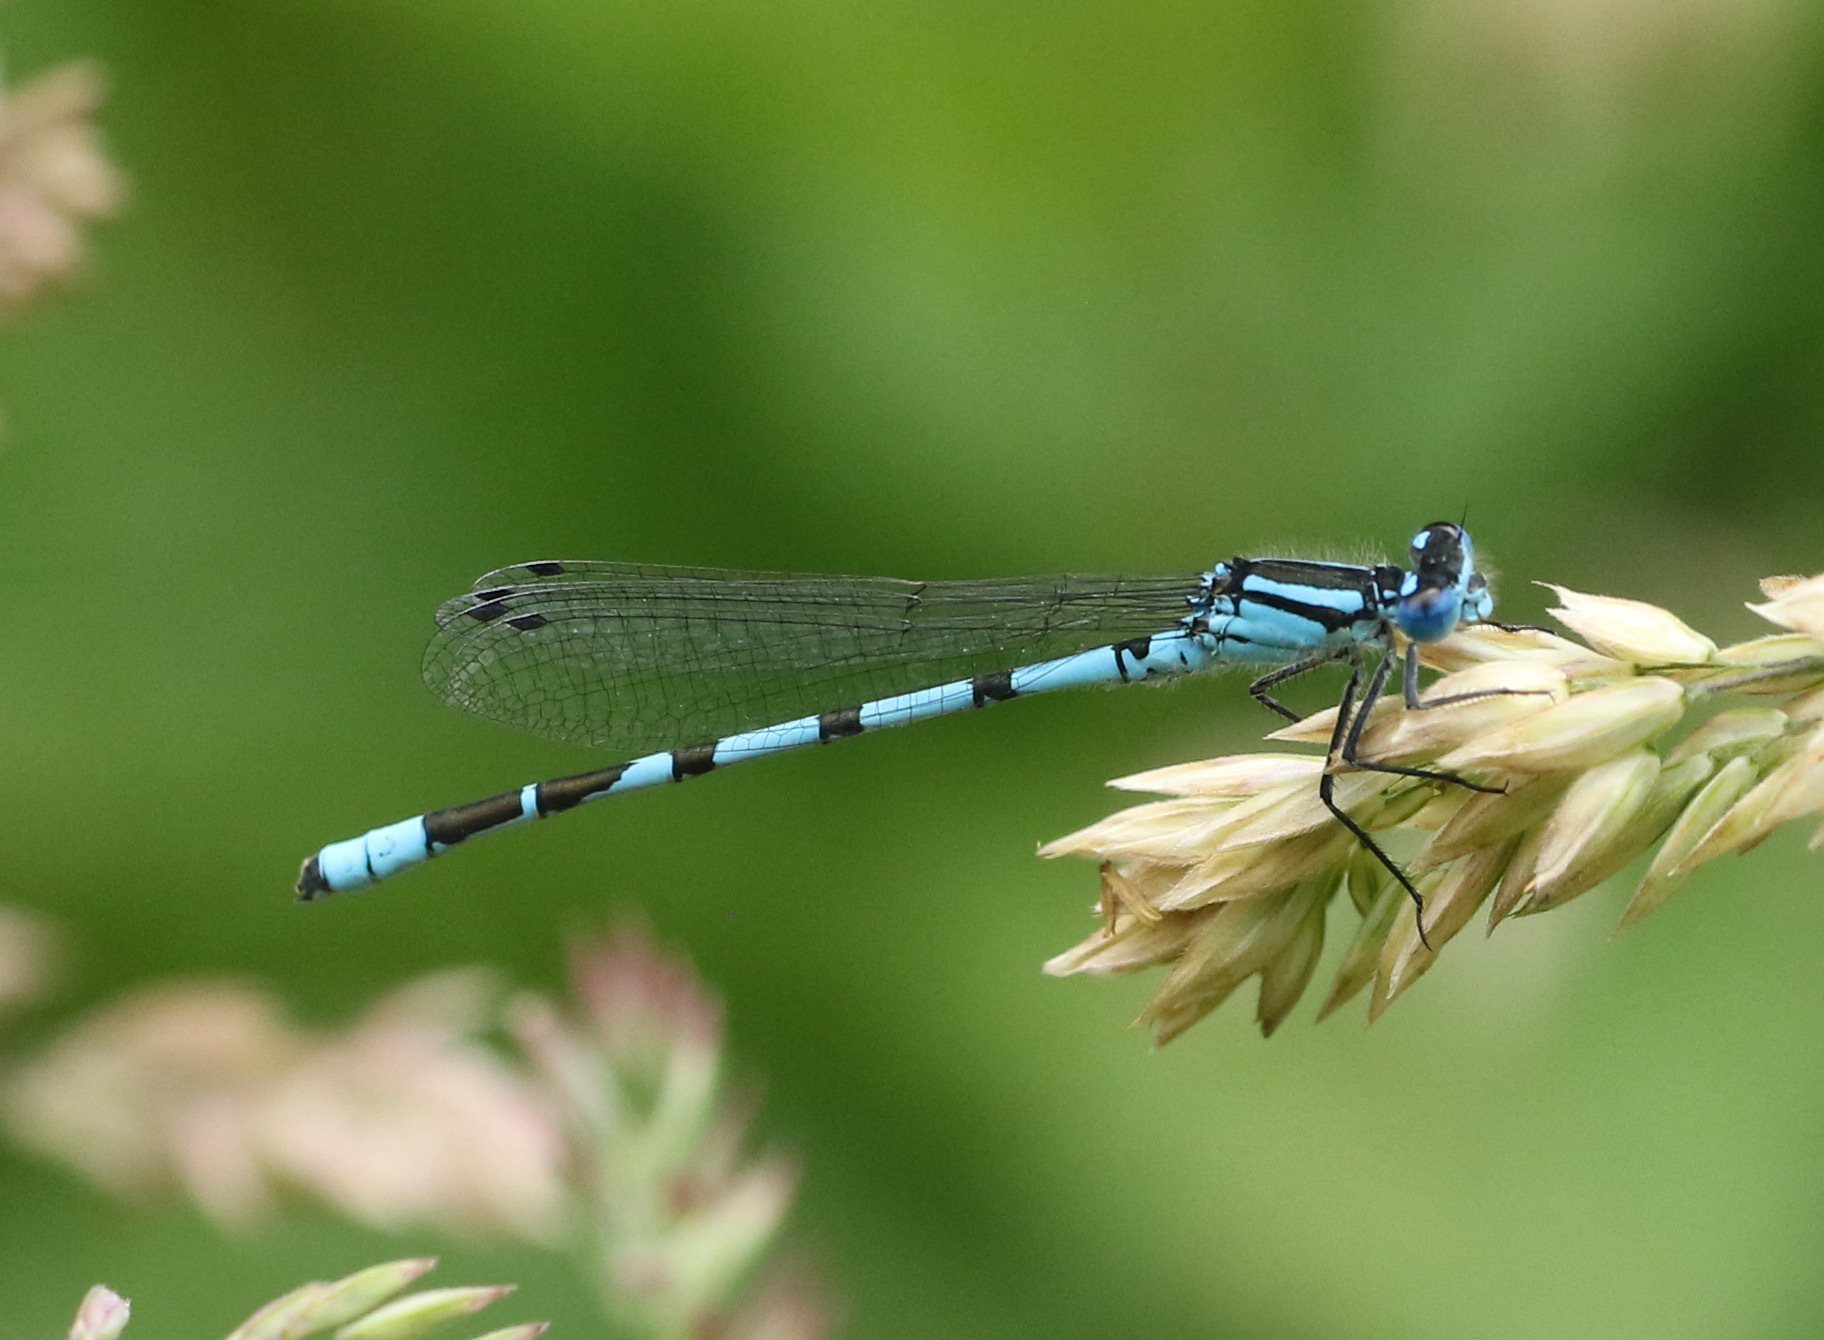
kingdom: Animalia
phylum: Arthropoda
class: Insecta
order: Odonata
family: Coenagrionidae
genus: Enallagma
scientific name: Enallagma cyathigerum
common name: Common blue damselfly
